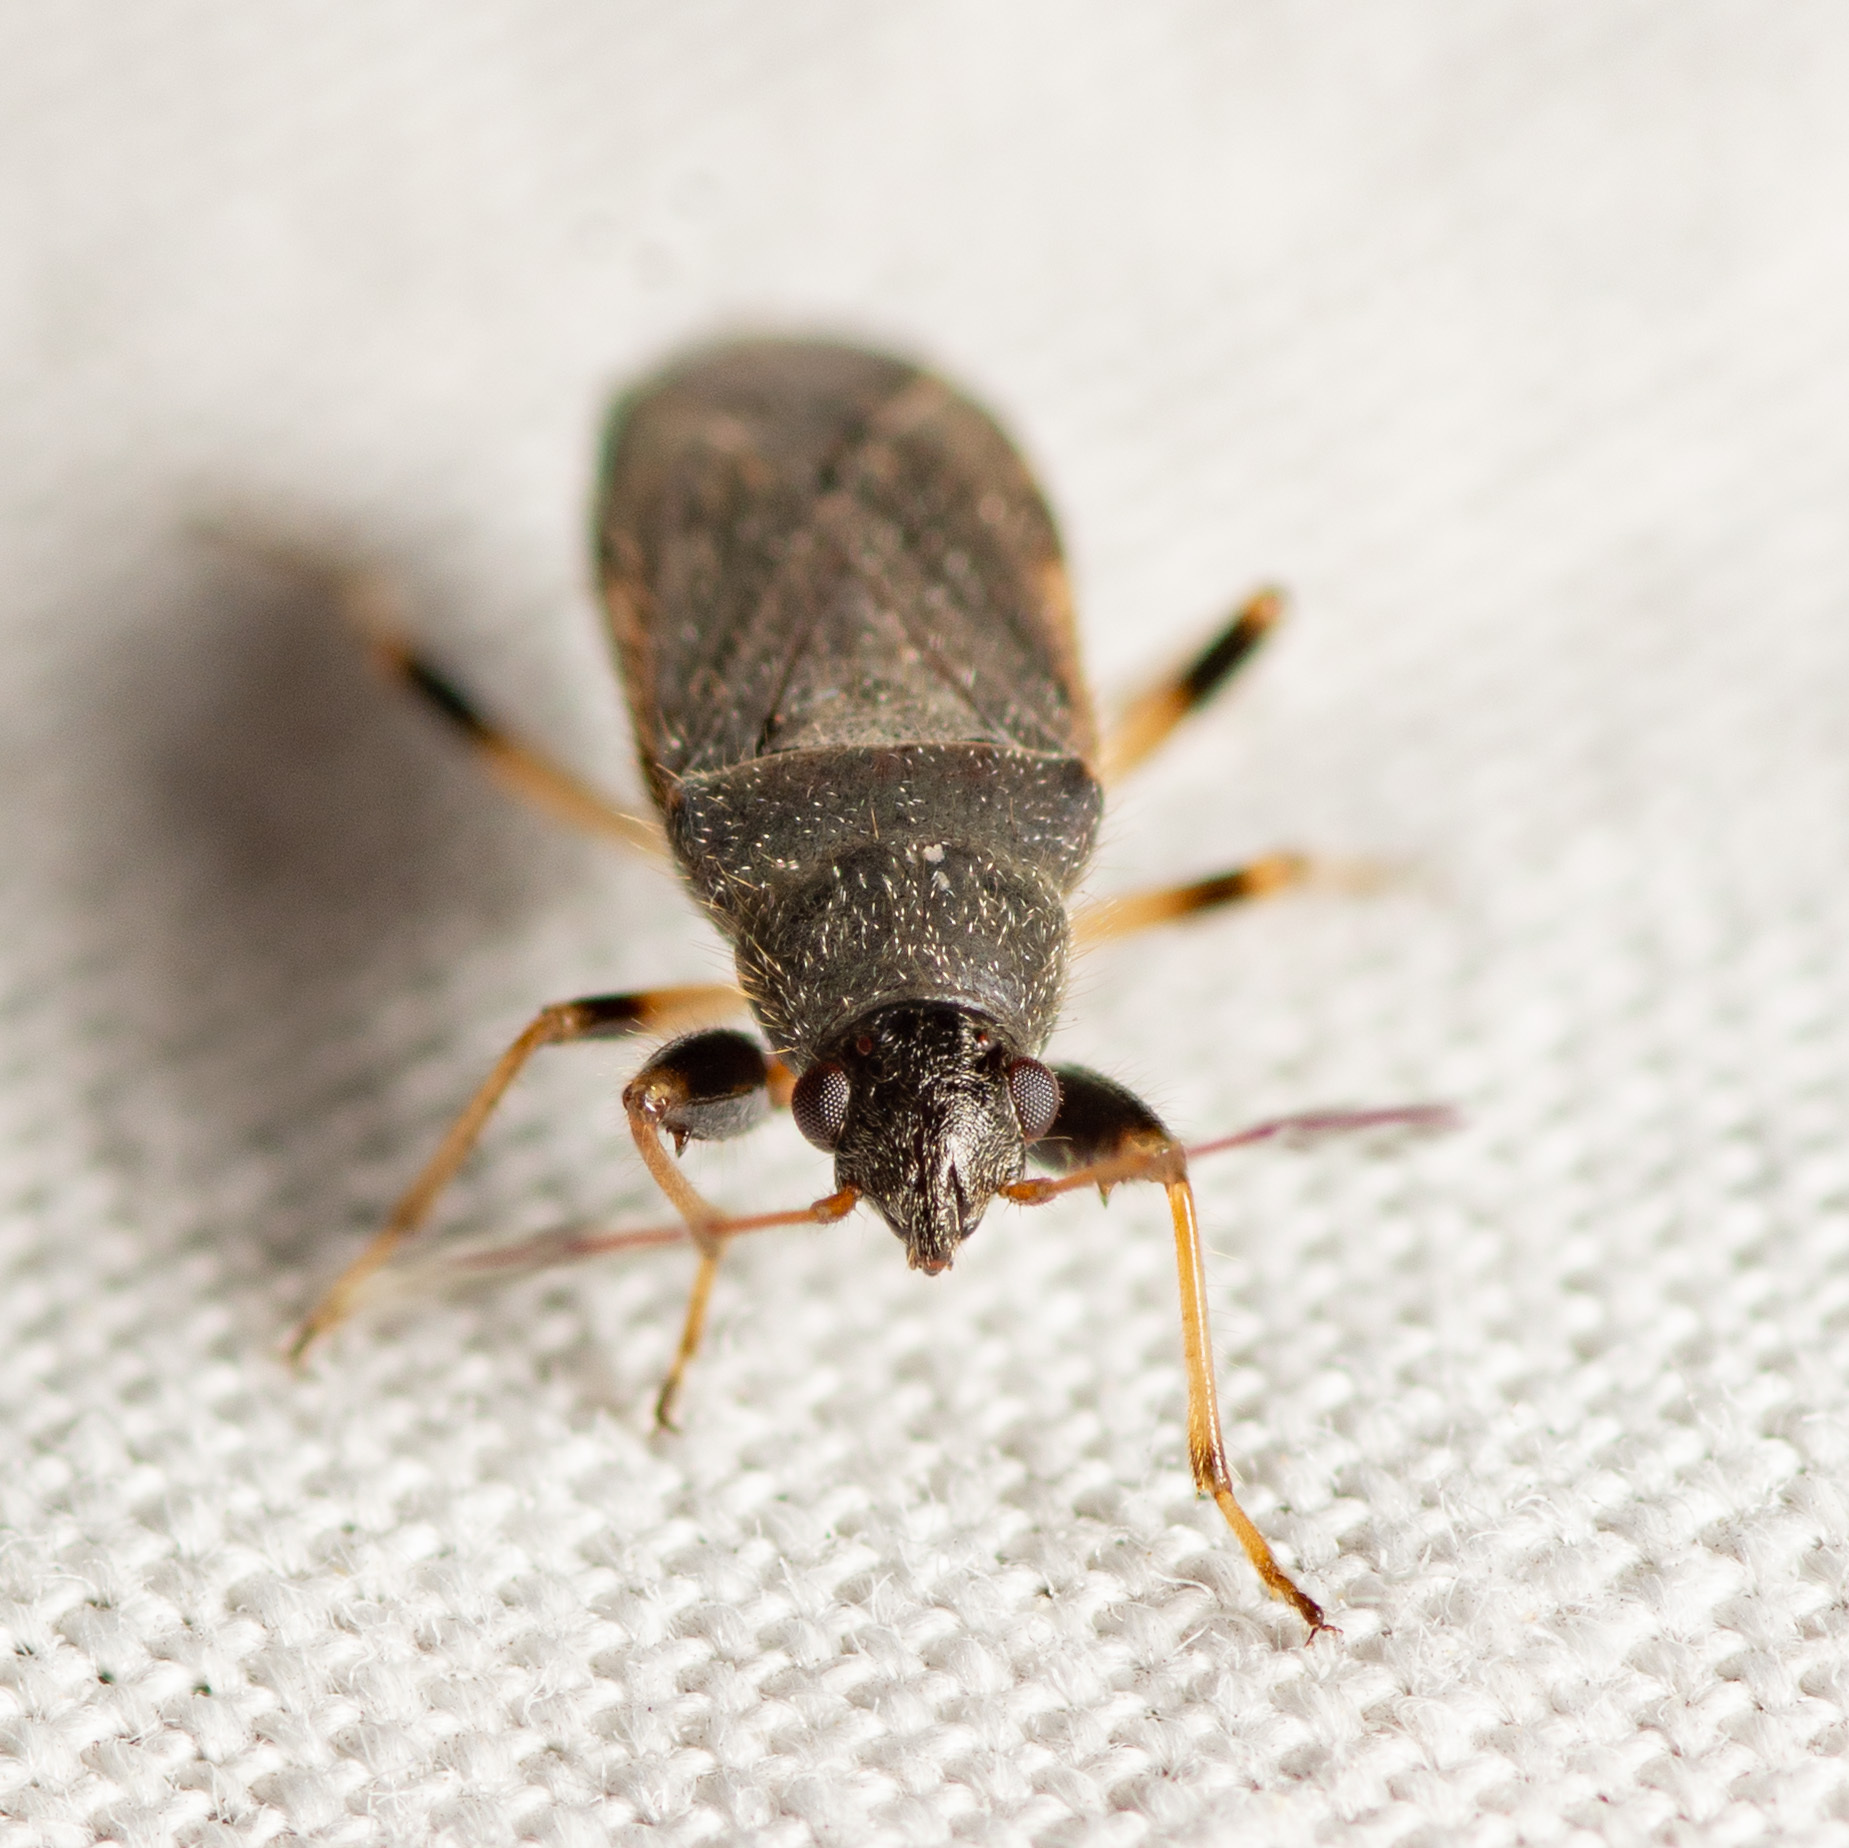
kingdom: Animalia
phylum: Arthropoda
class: Insecta
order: Hemiptera
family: Rhyparochromidae
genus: Perigenes
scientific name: Perigenes similis
